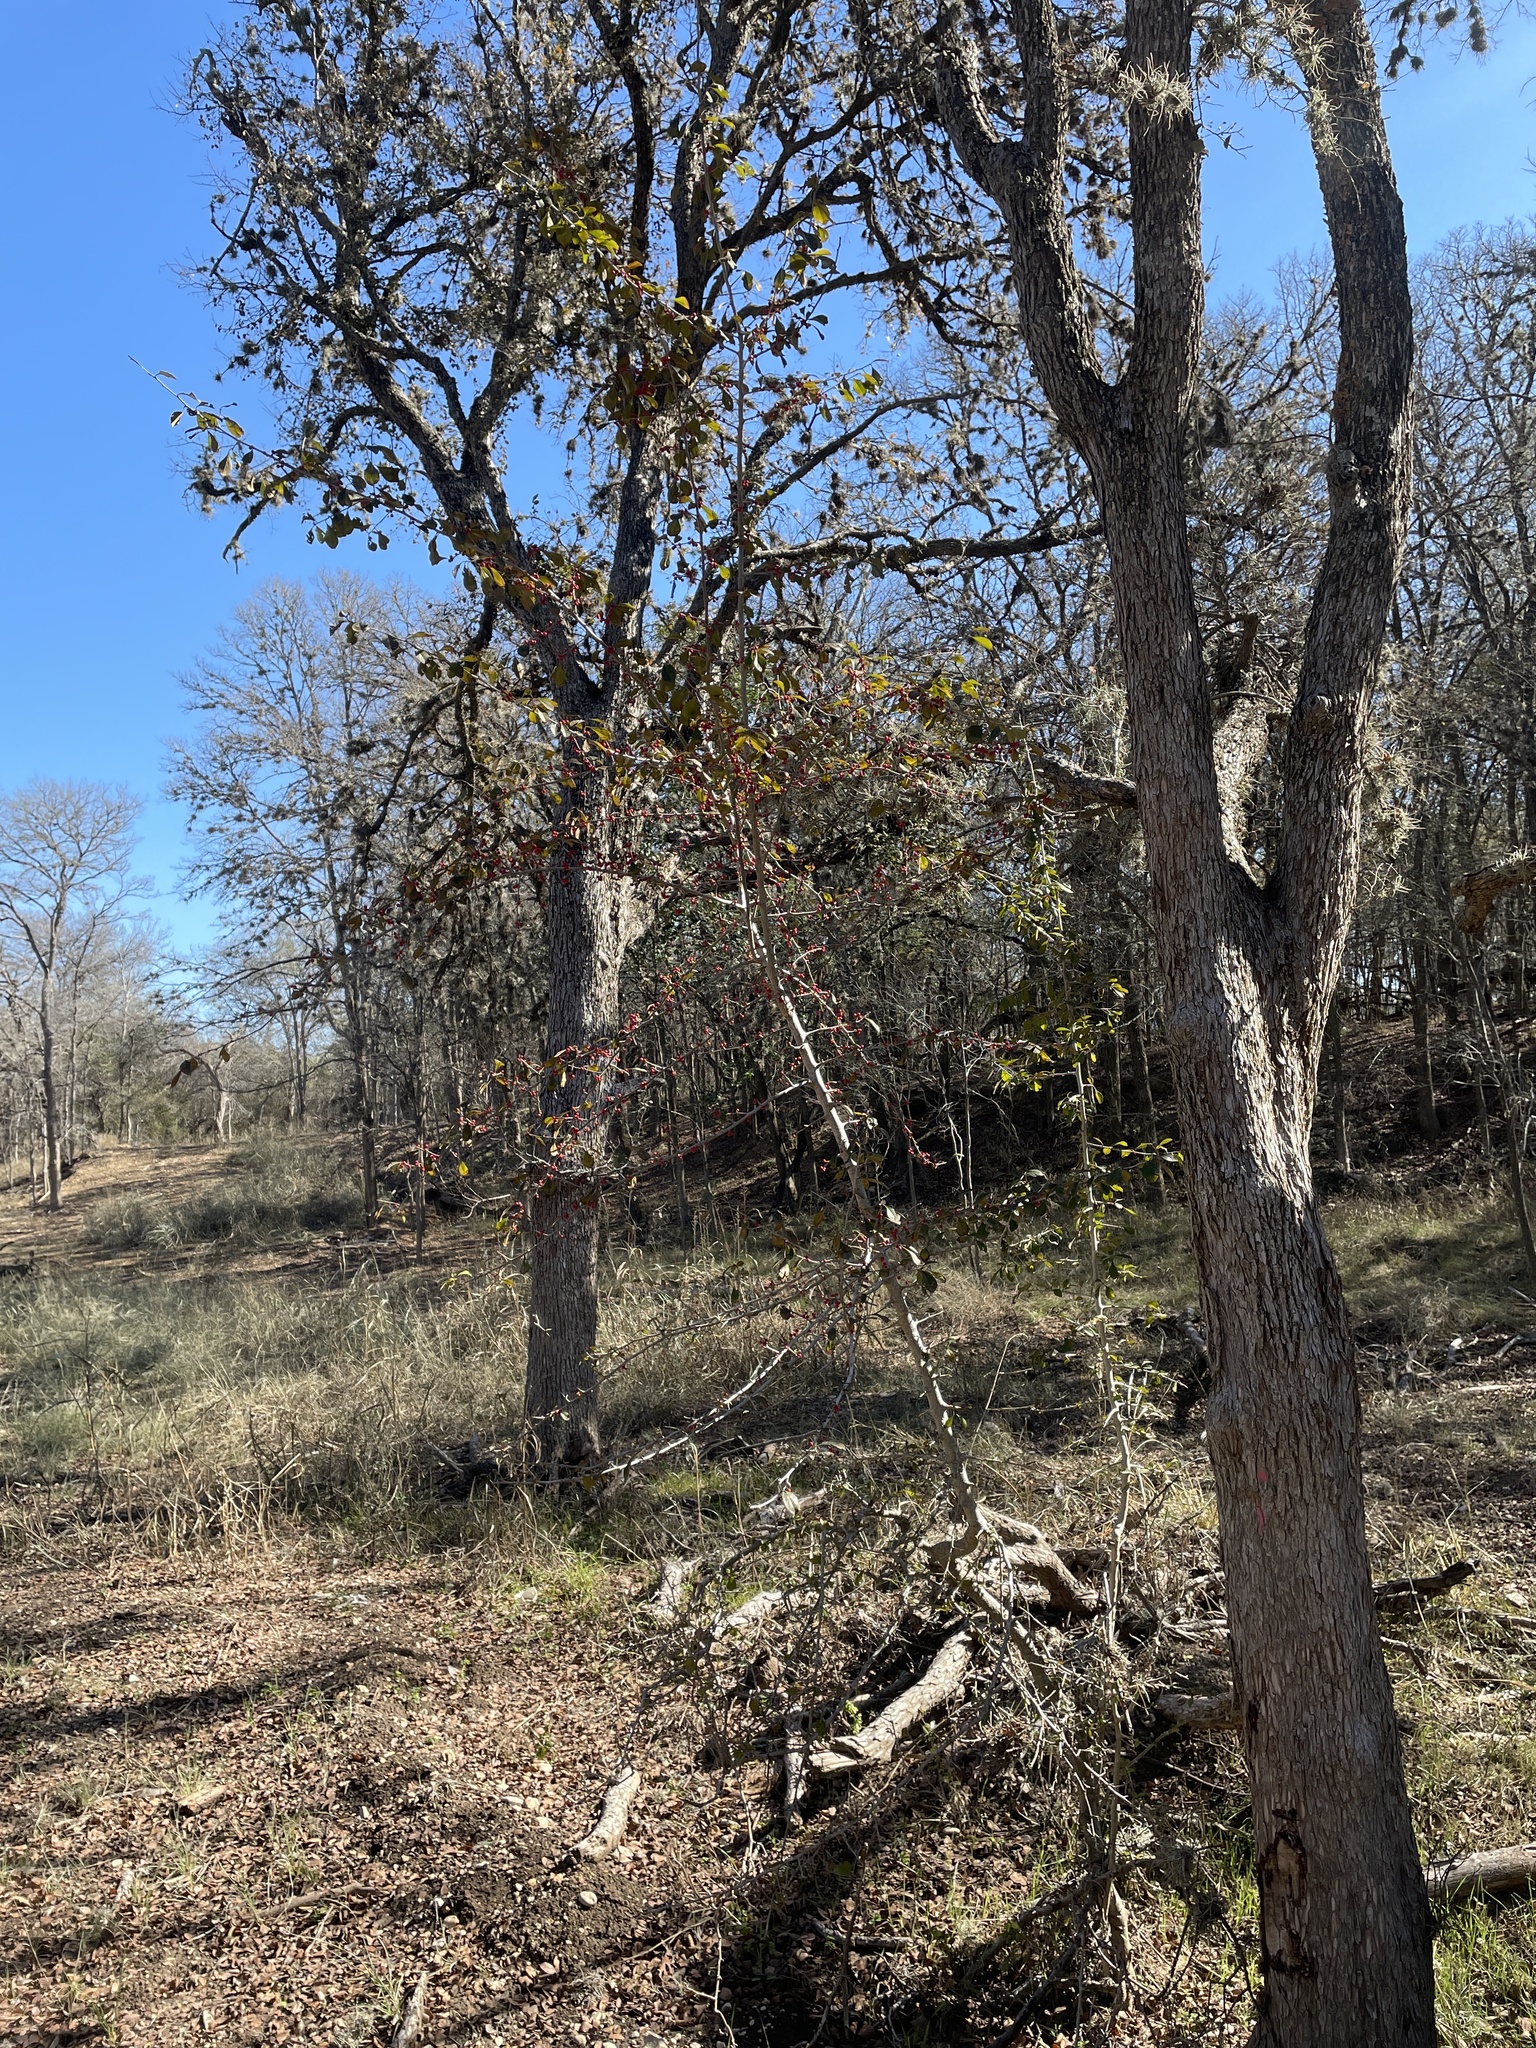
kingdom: Plantae
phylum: Tracheophyta
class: Magnoliopsida
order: Aquifoliales
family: Aquifoliaceae
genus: Ilex
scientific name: Ilex decidua
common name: Possum-haw
